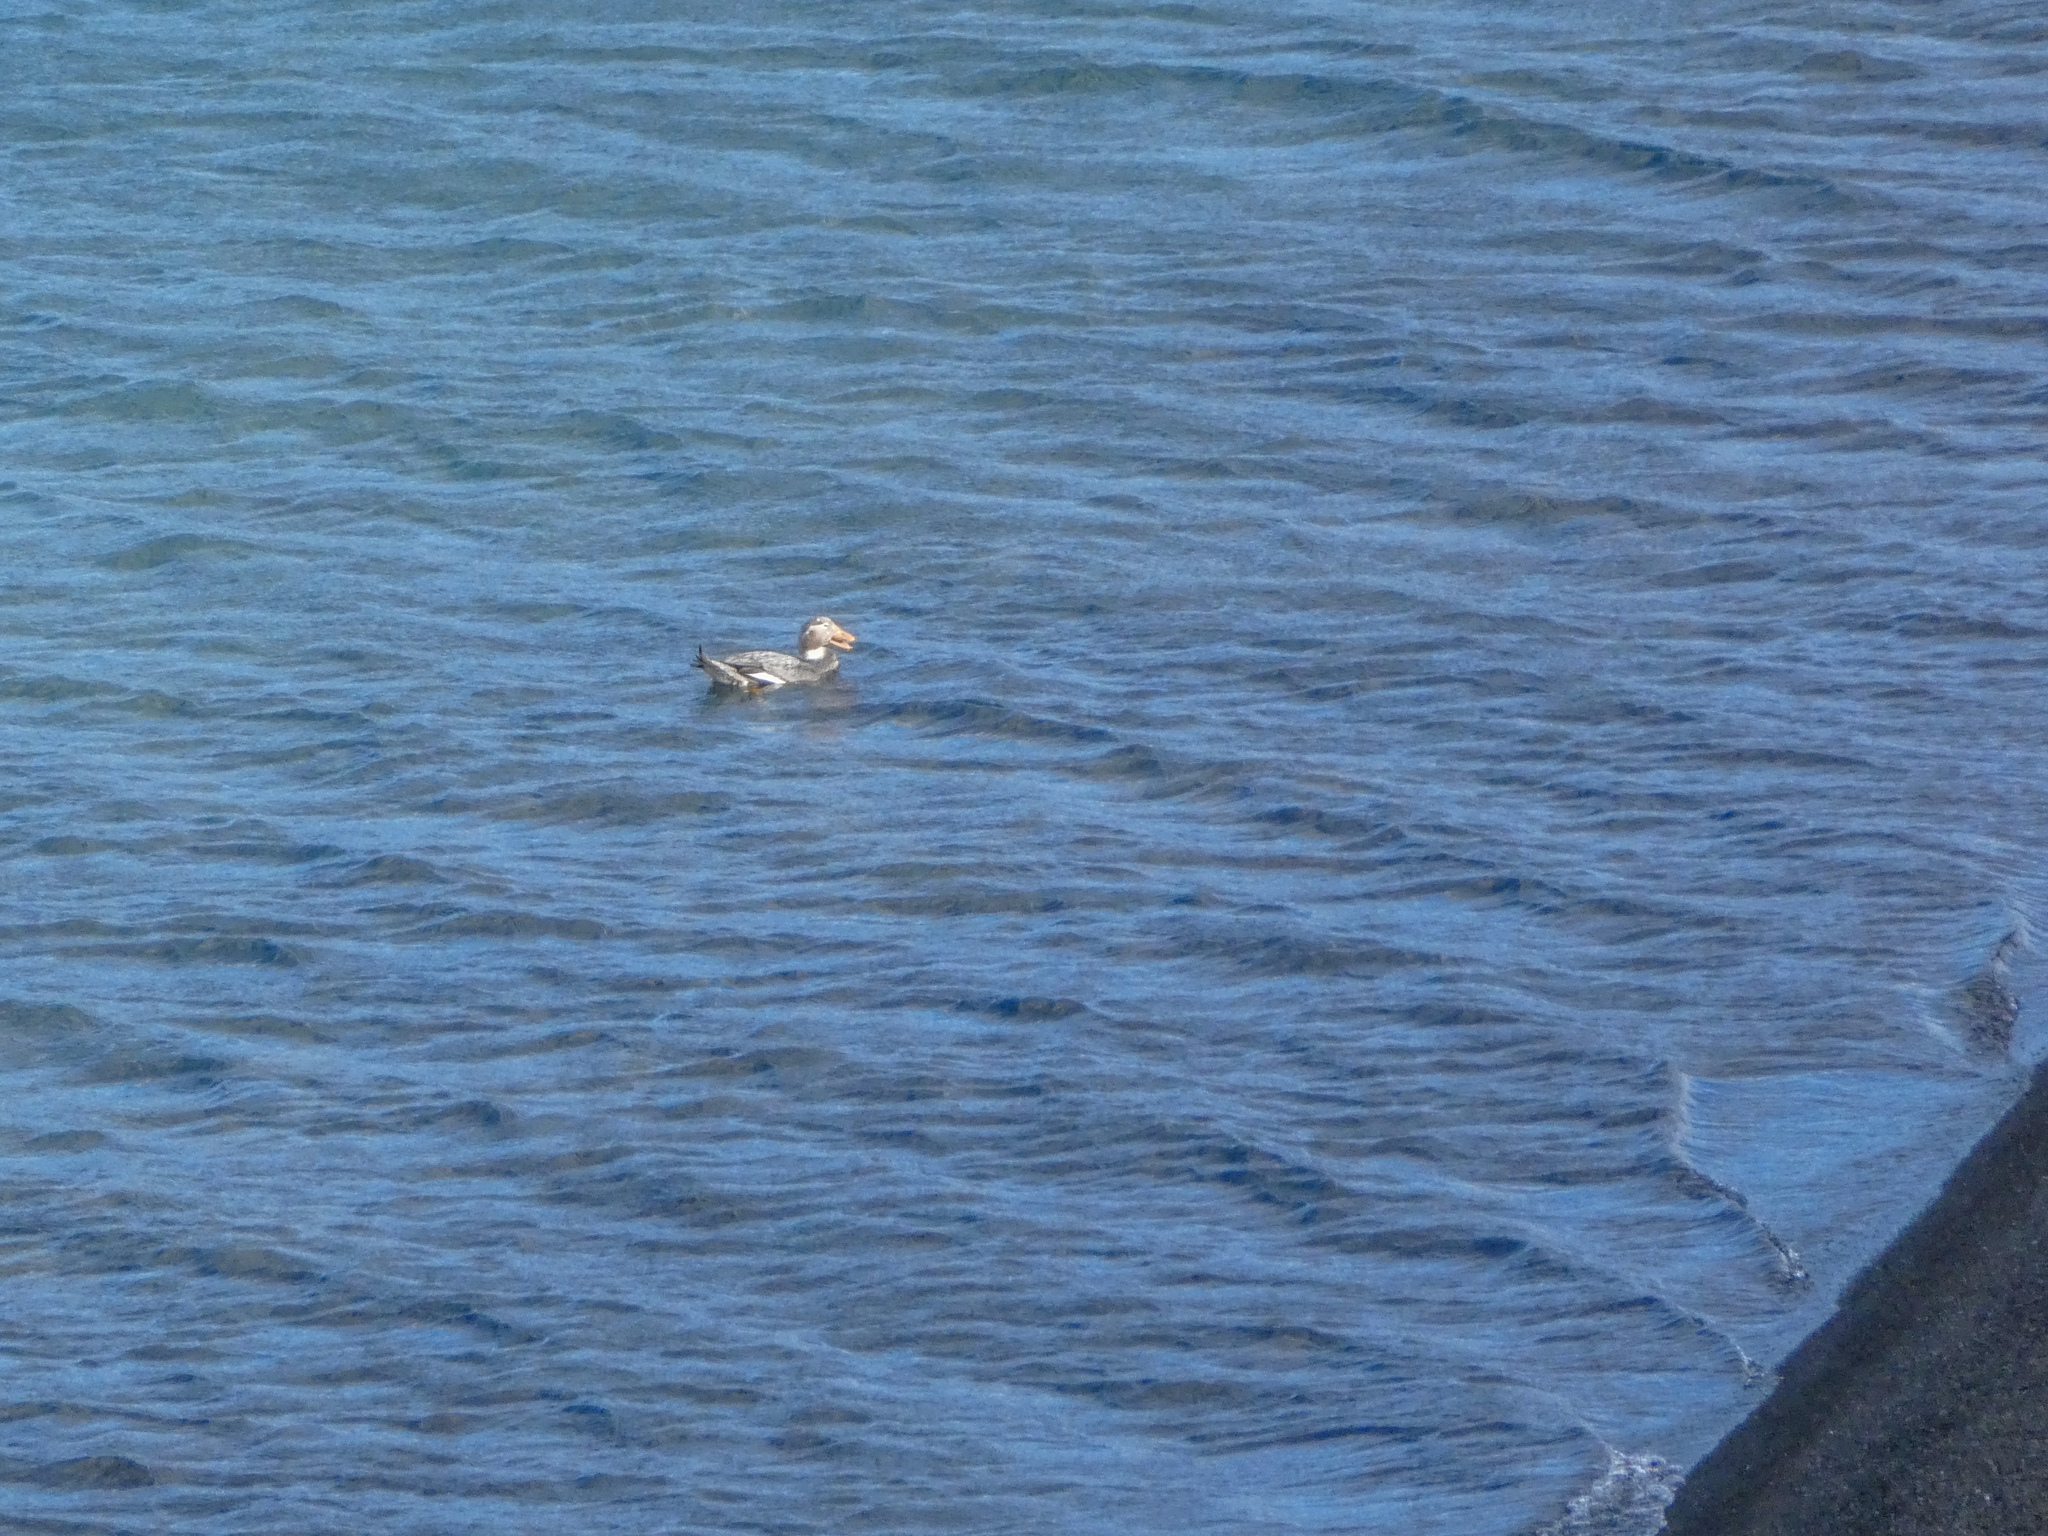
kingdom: Animalia
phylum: Chordata
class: Aves
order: Anseriformes
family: Anatidae
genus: Tachyeres
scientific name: Tachyeres patachonicus
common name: Flying steamer duck
